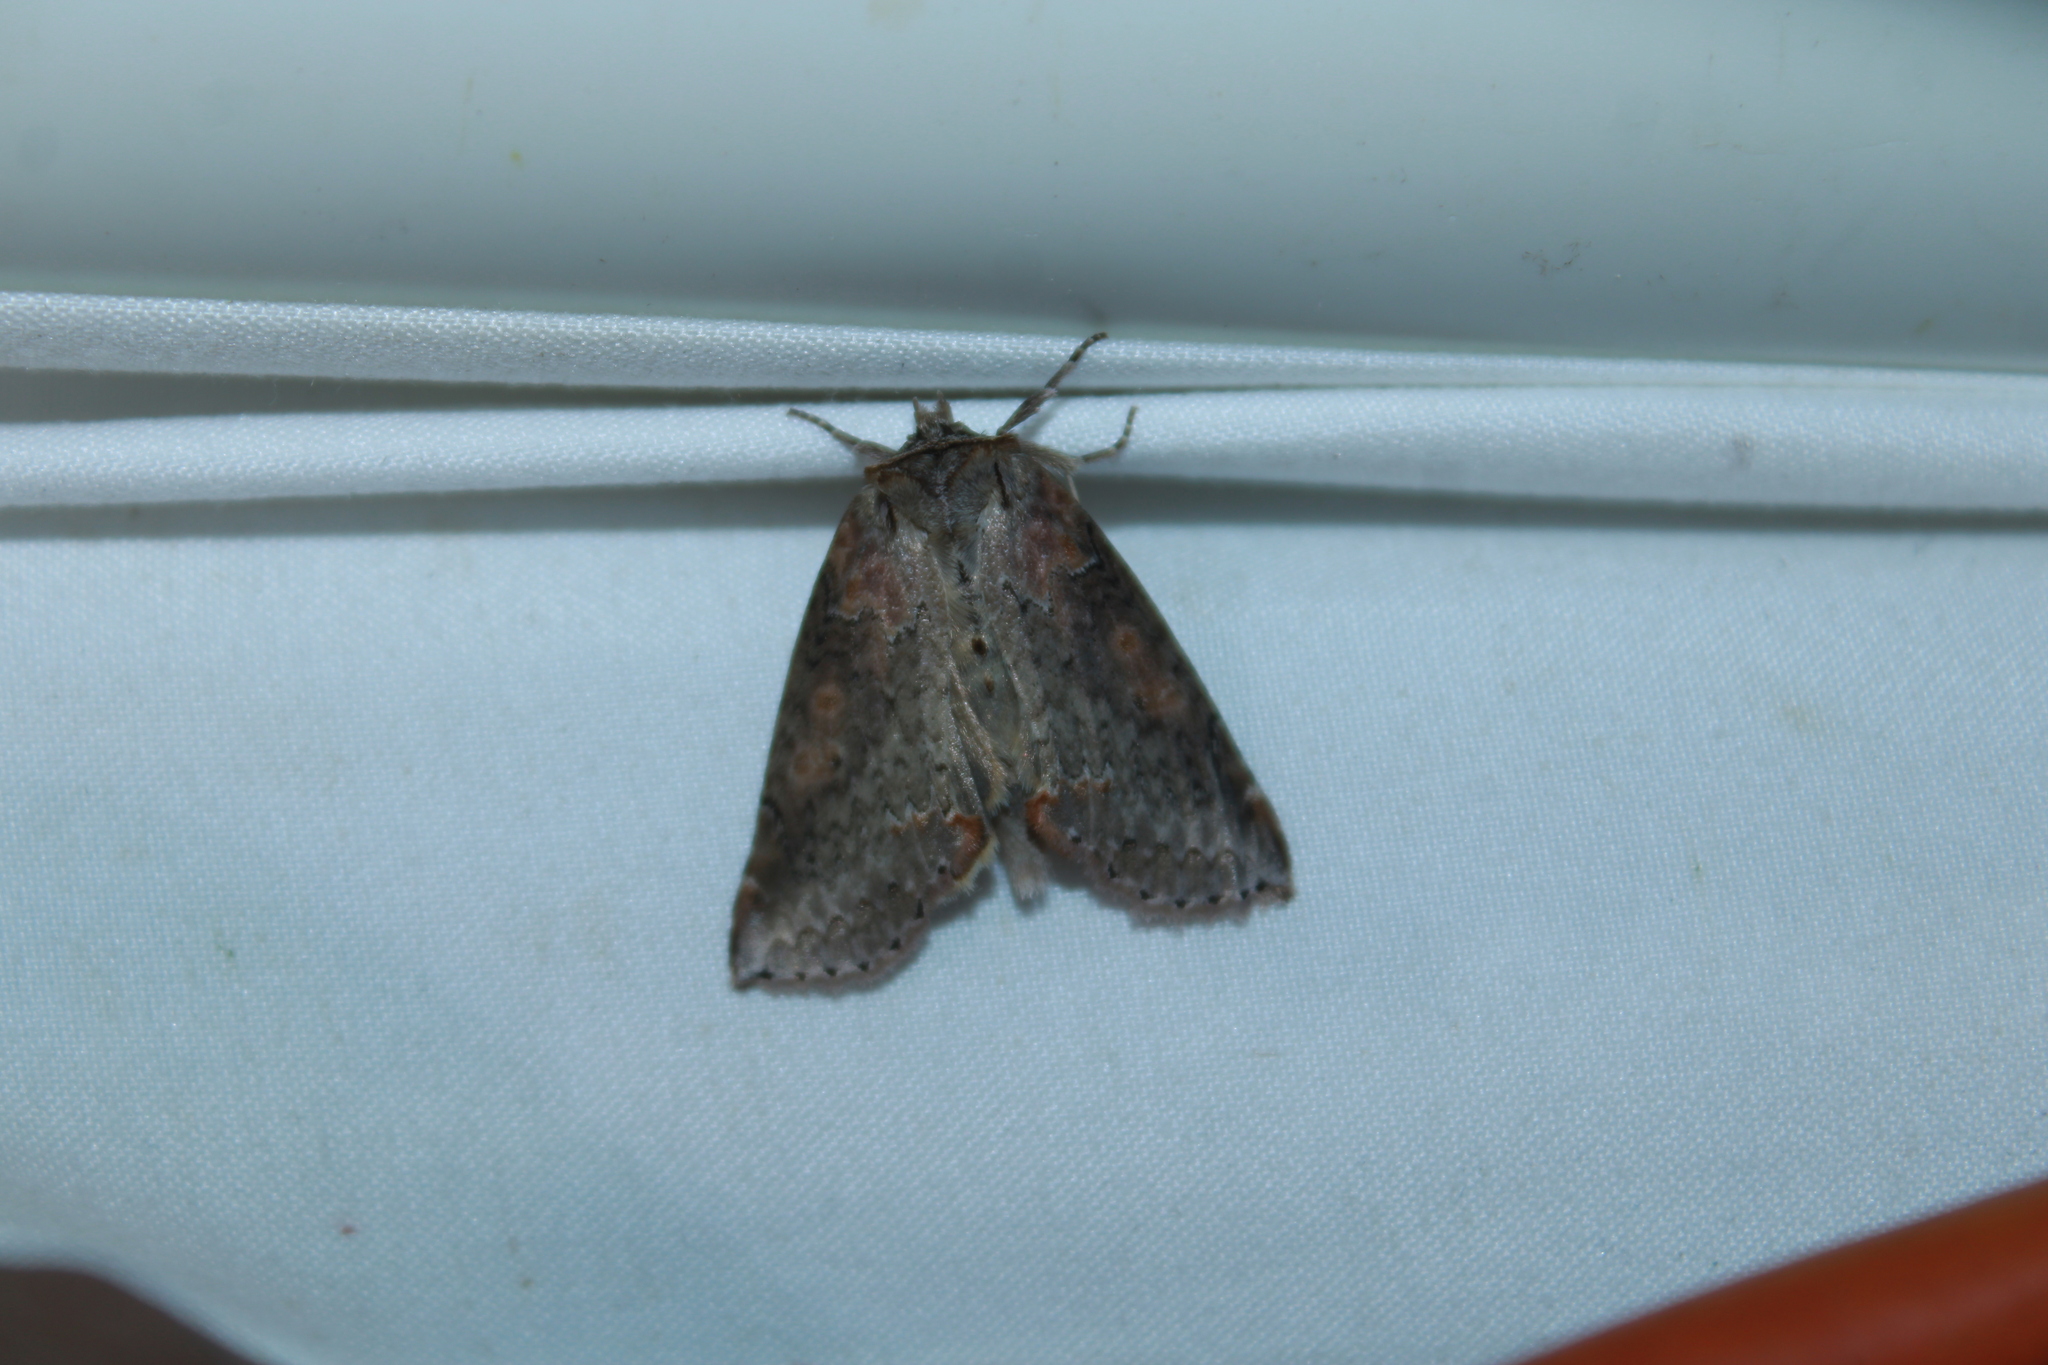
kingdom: Animalia
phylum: Arthropoda
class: Insecta
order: Lepidoptera
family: Drepanidae
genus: Pseudothyatira
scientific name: Pseudothyatira cymatophoroides
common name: Tufted thyatirid moth
